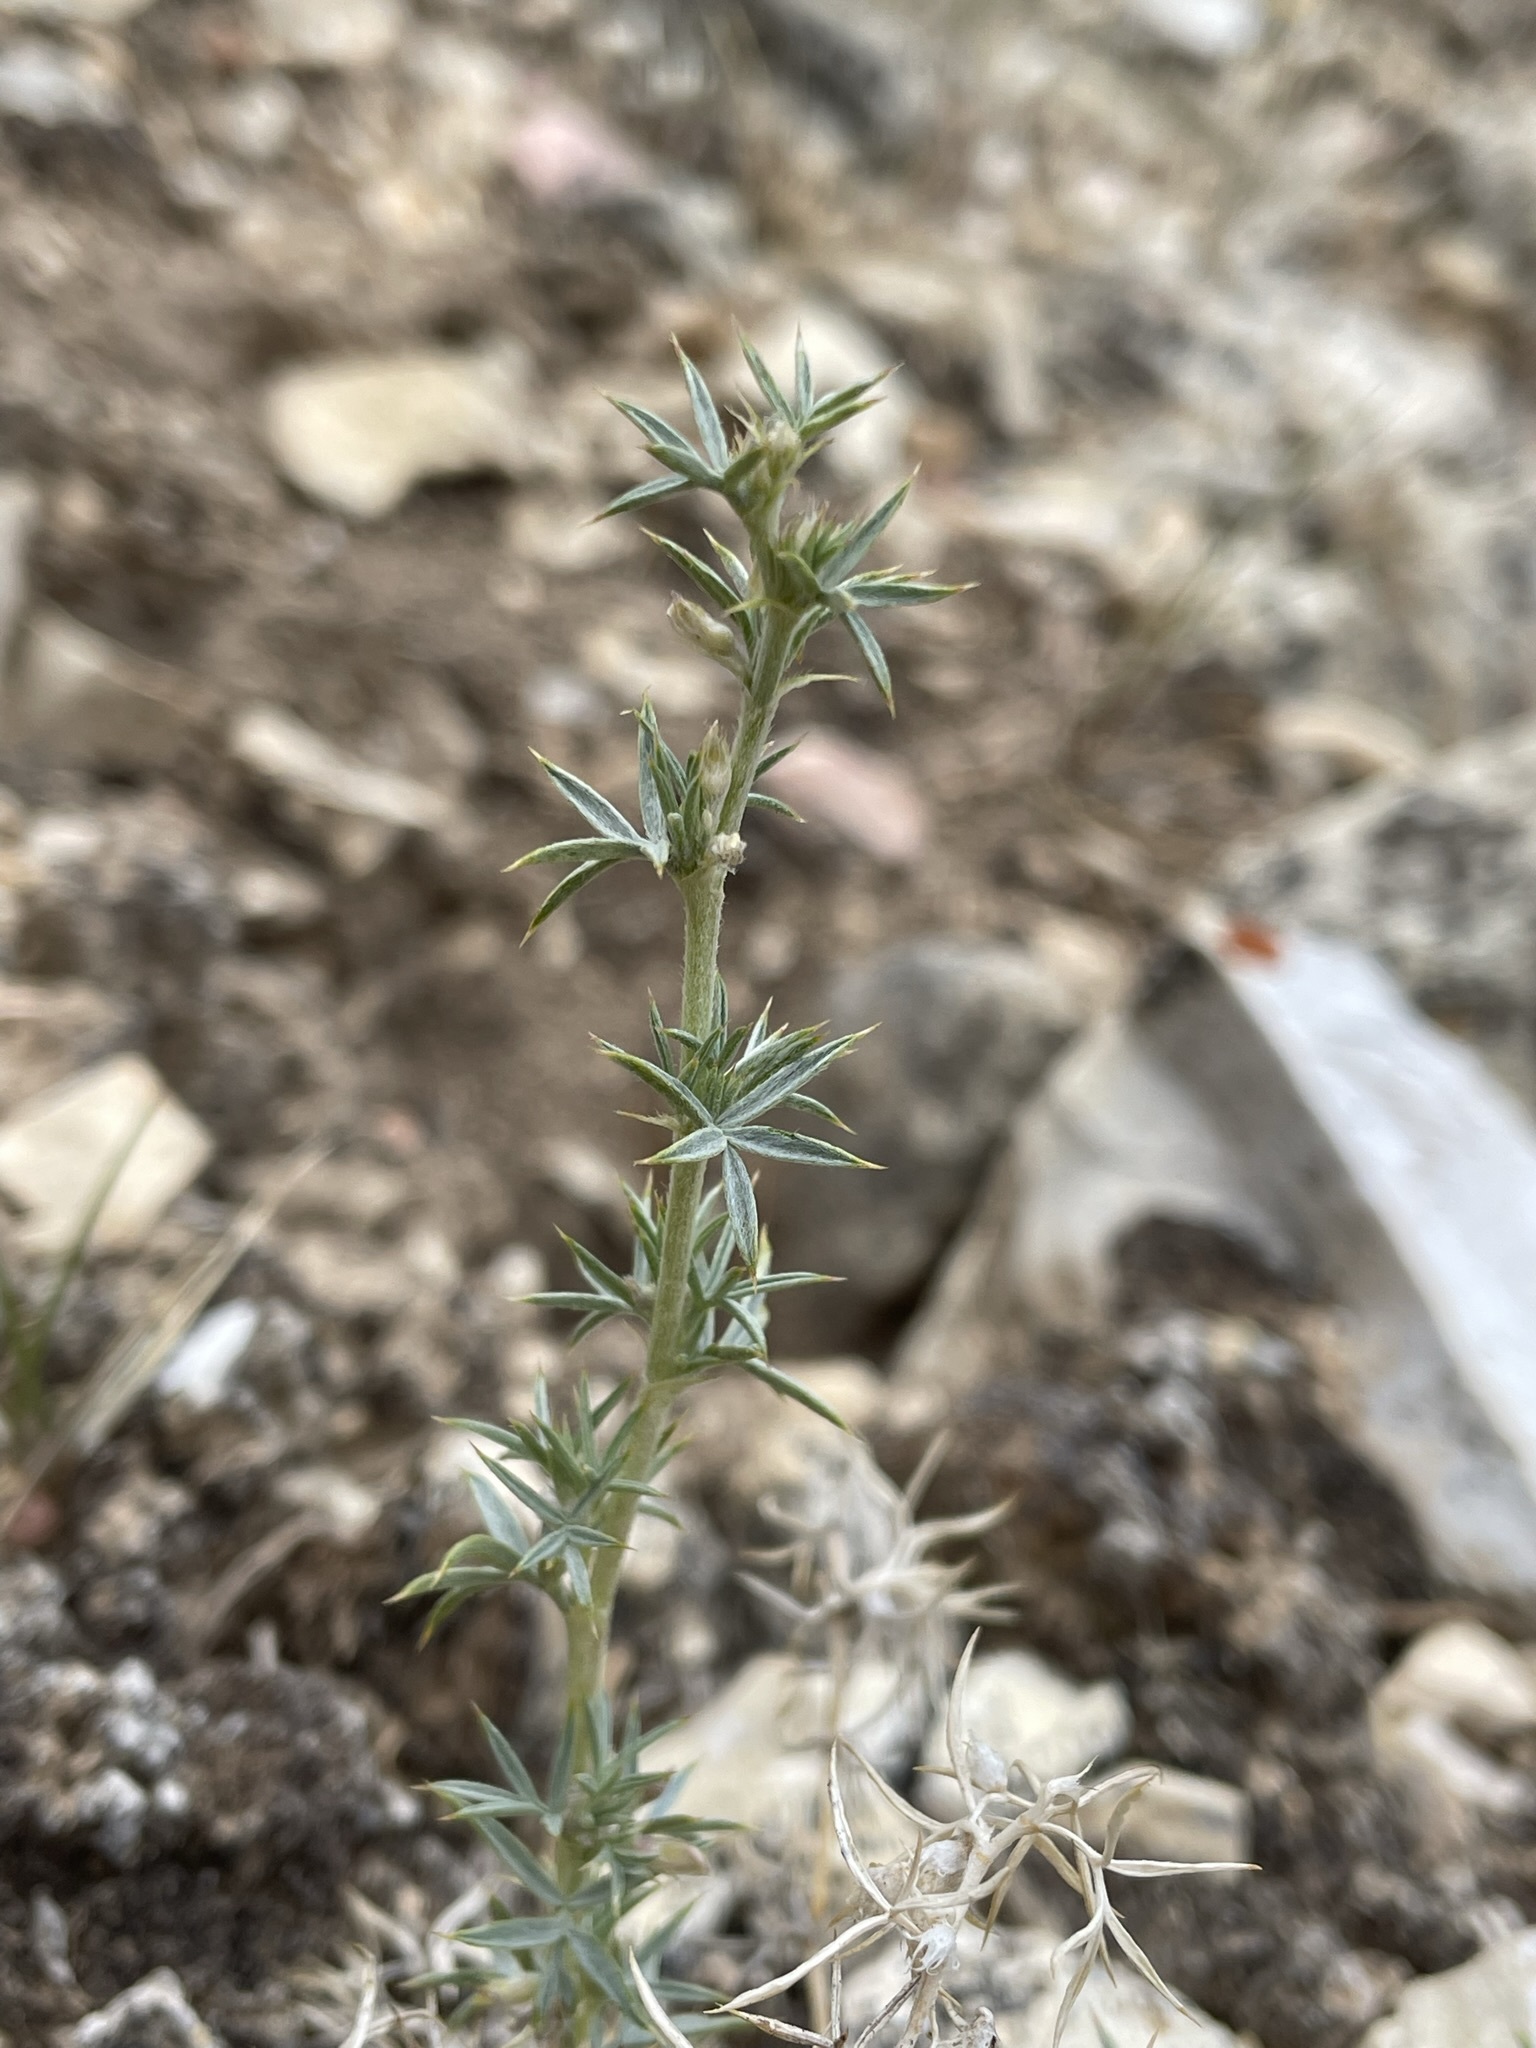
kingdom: Plantae
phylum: Tracheophyta
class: Magnoliopsida
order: Fabales
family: Fabaceae
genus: Astragalus
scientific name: Astragalus kentrophyta
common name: Prickly milk-vetch
